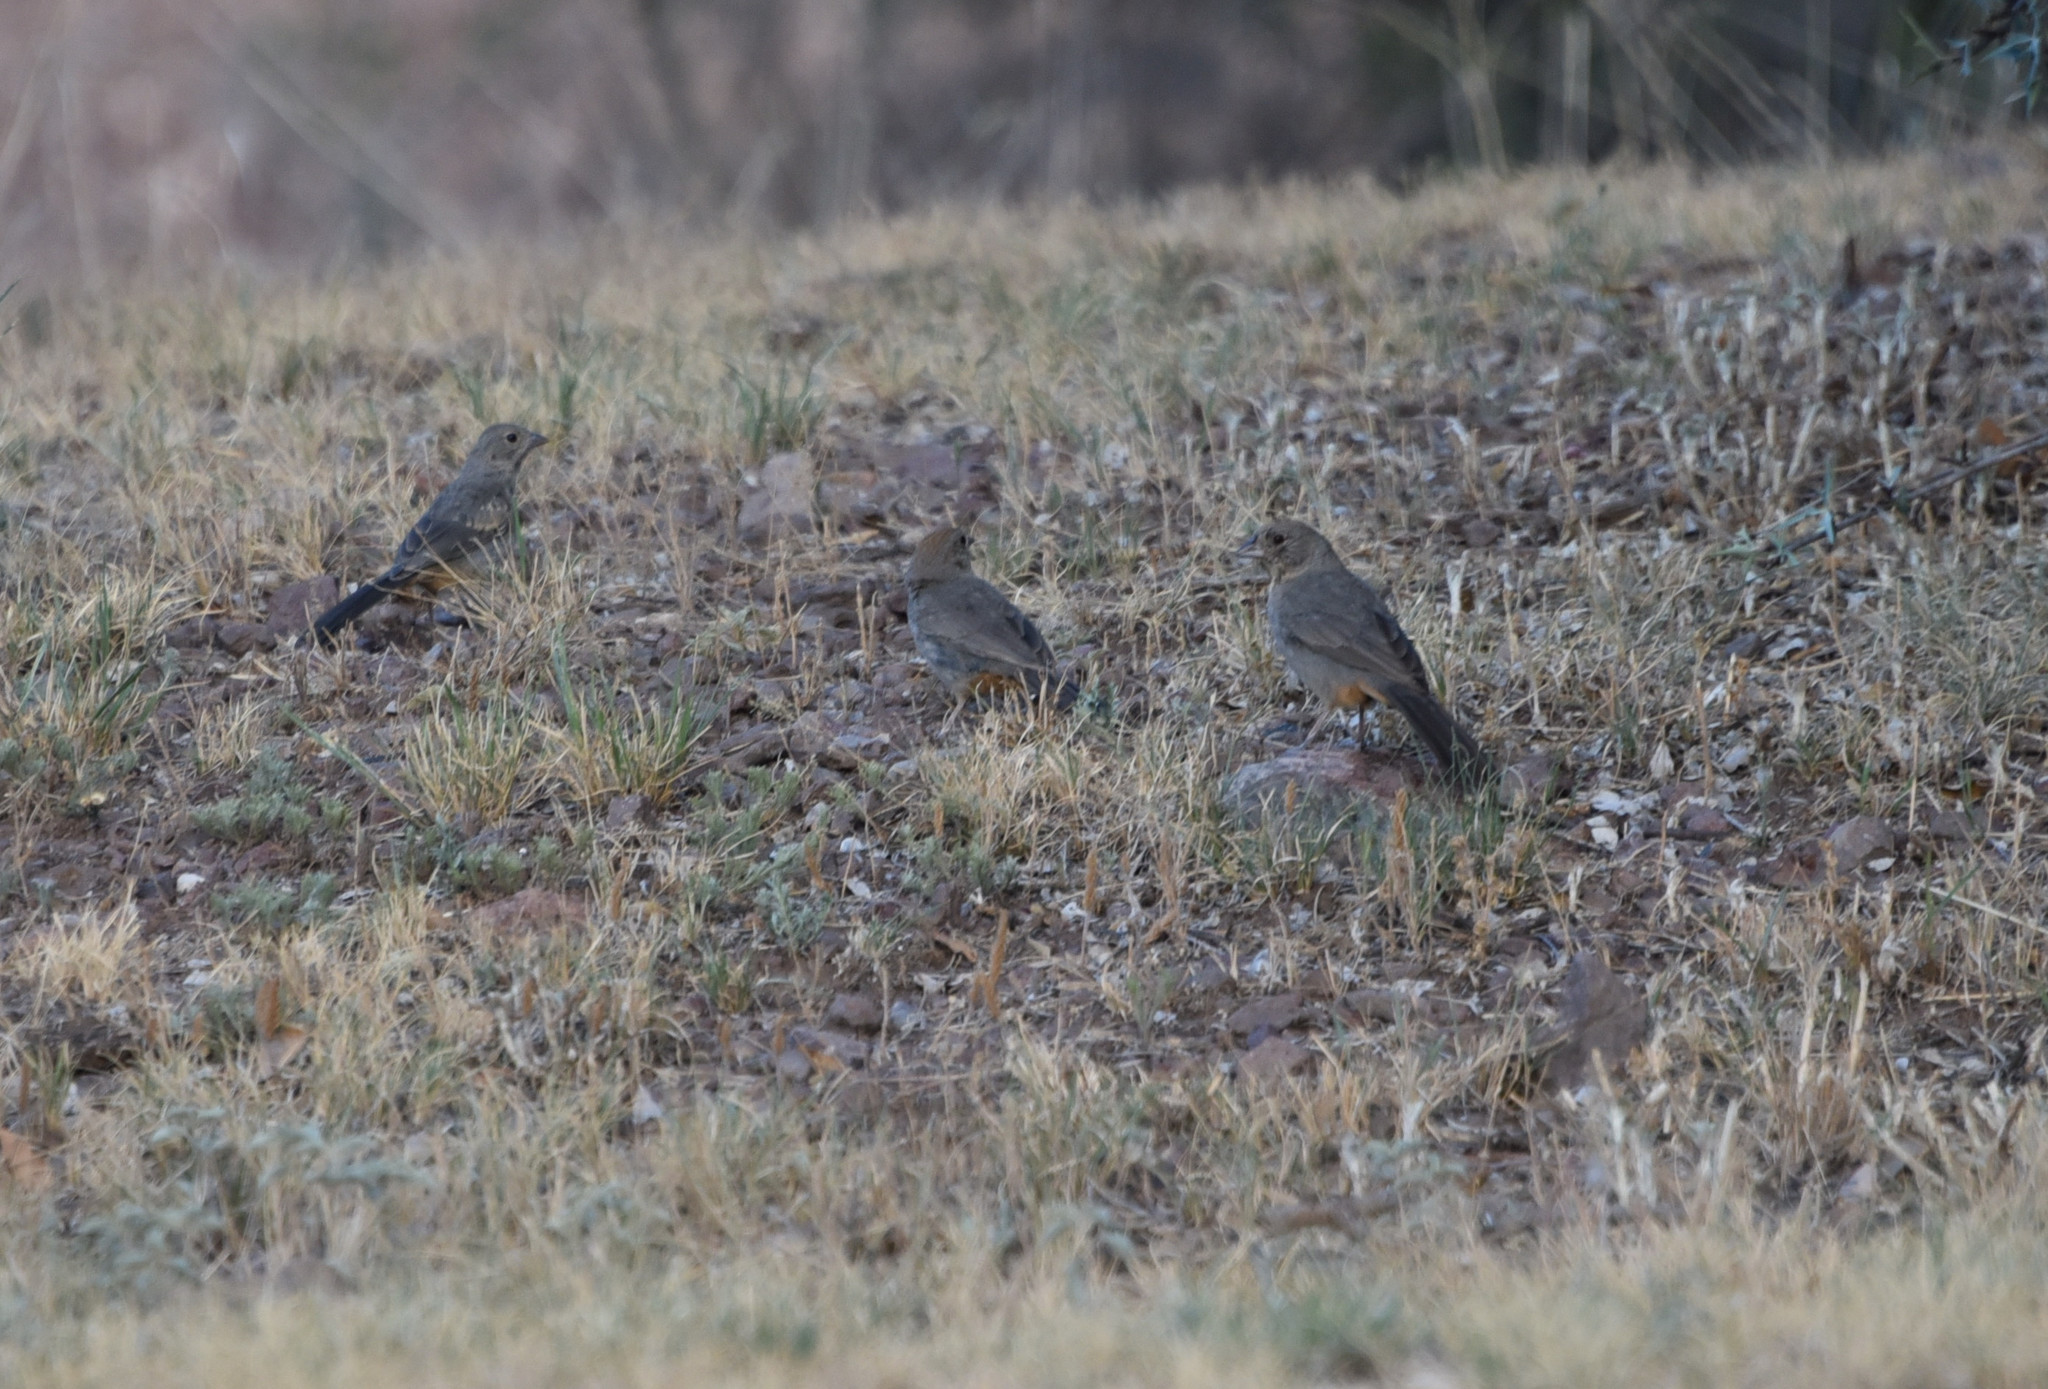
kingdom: Animalia
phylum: Chordata
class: Aves
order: Passeriformes
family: Passerellidae
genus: Melozone
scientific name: Melozone fusca
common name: Canyon towhee
